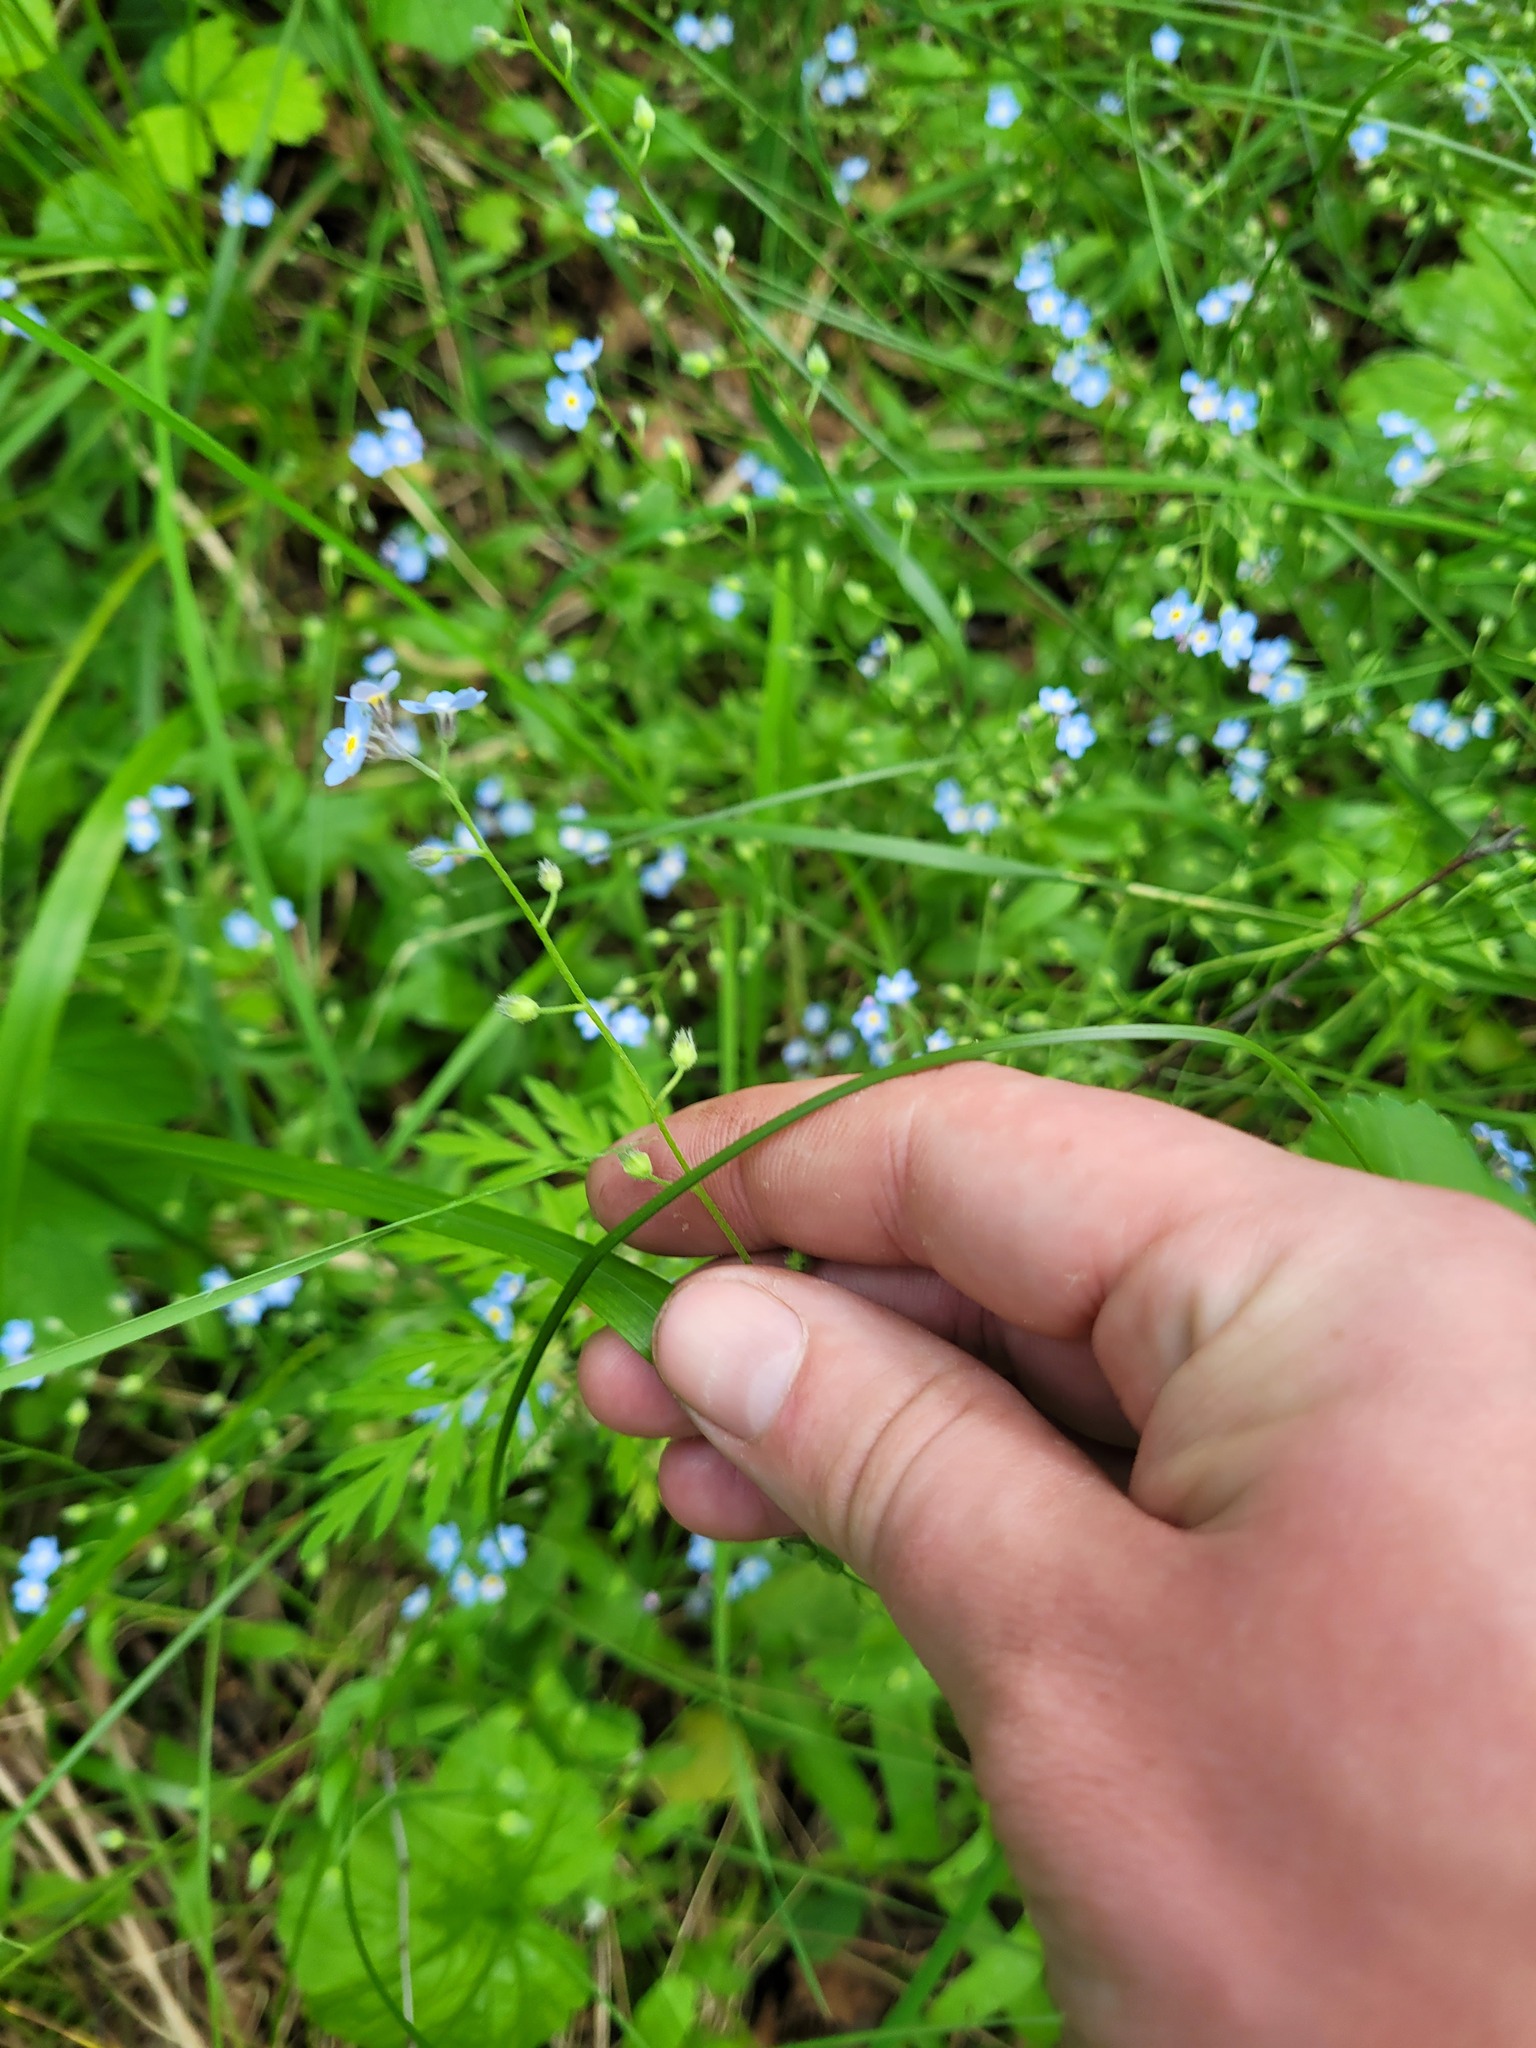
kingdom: Plantae
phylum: Tracheophyta
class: Magnoliopsida
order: Boraginales
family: Boraginaceae
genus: Myosotis
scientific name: Myosotis sylvatica
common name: Wood forget-me-not
